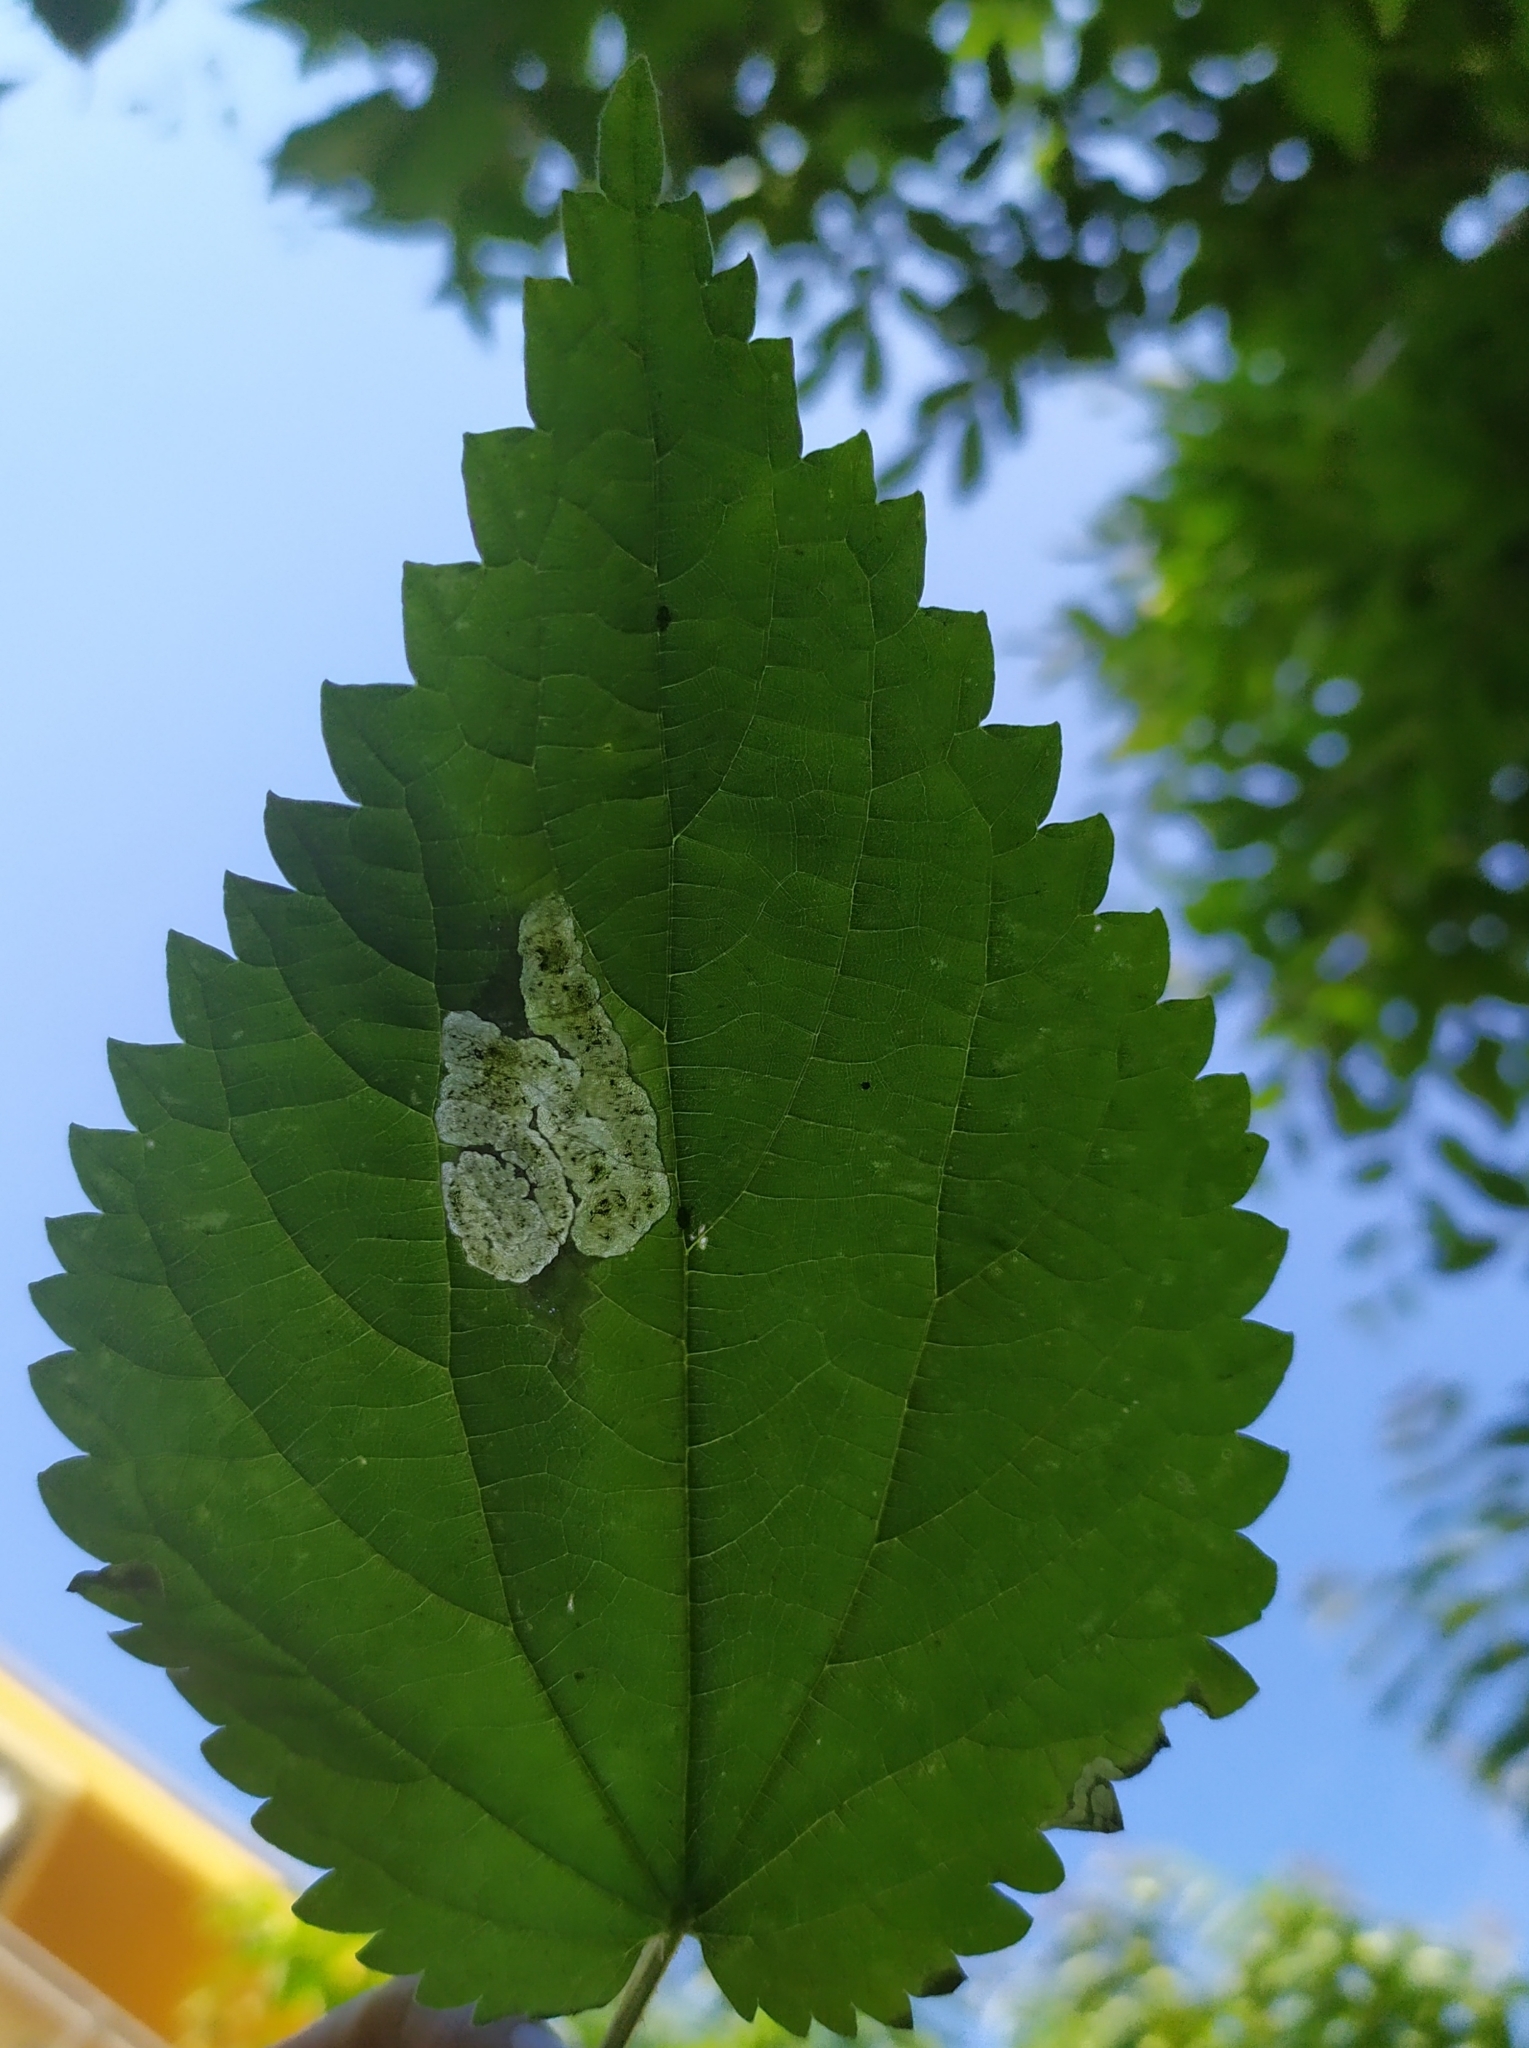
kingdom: Animalia
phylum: Arthropoda
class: Insecta
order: Diptera
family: Agromyzidae
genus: Agromyza
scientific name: Agromyza anthracina
